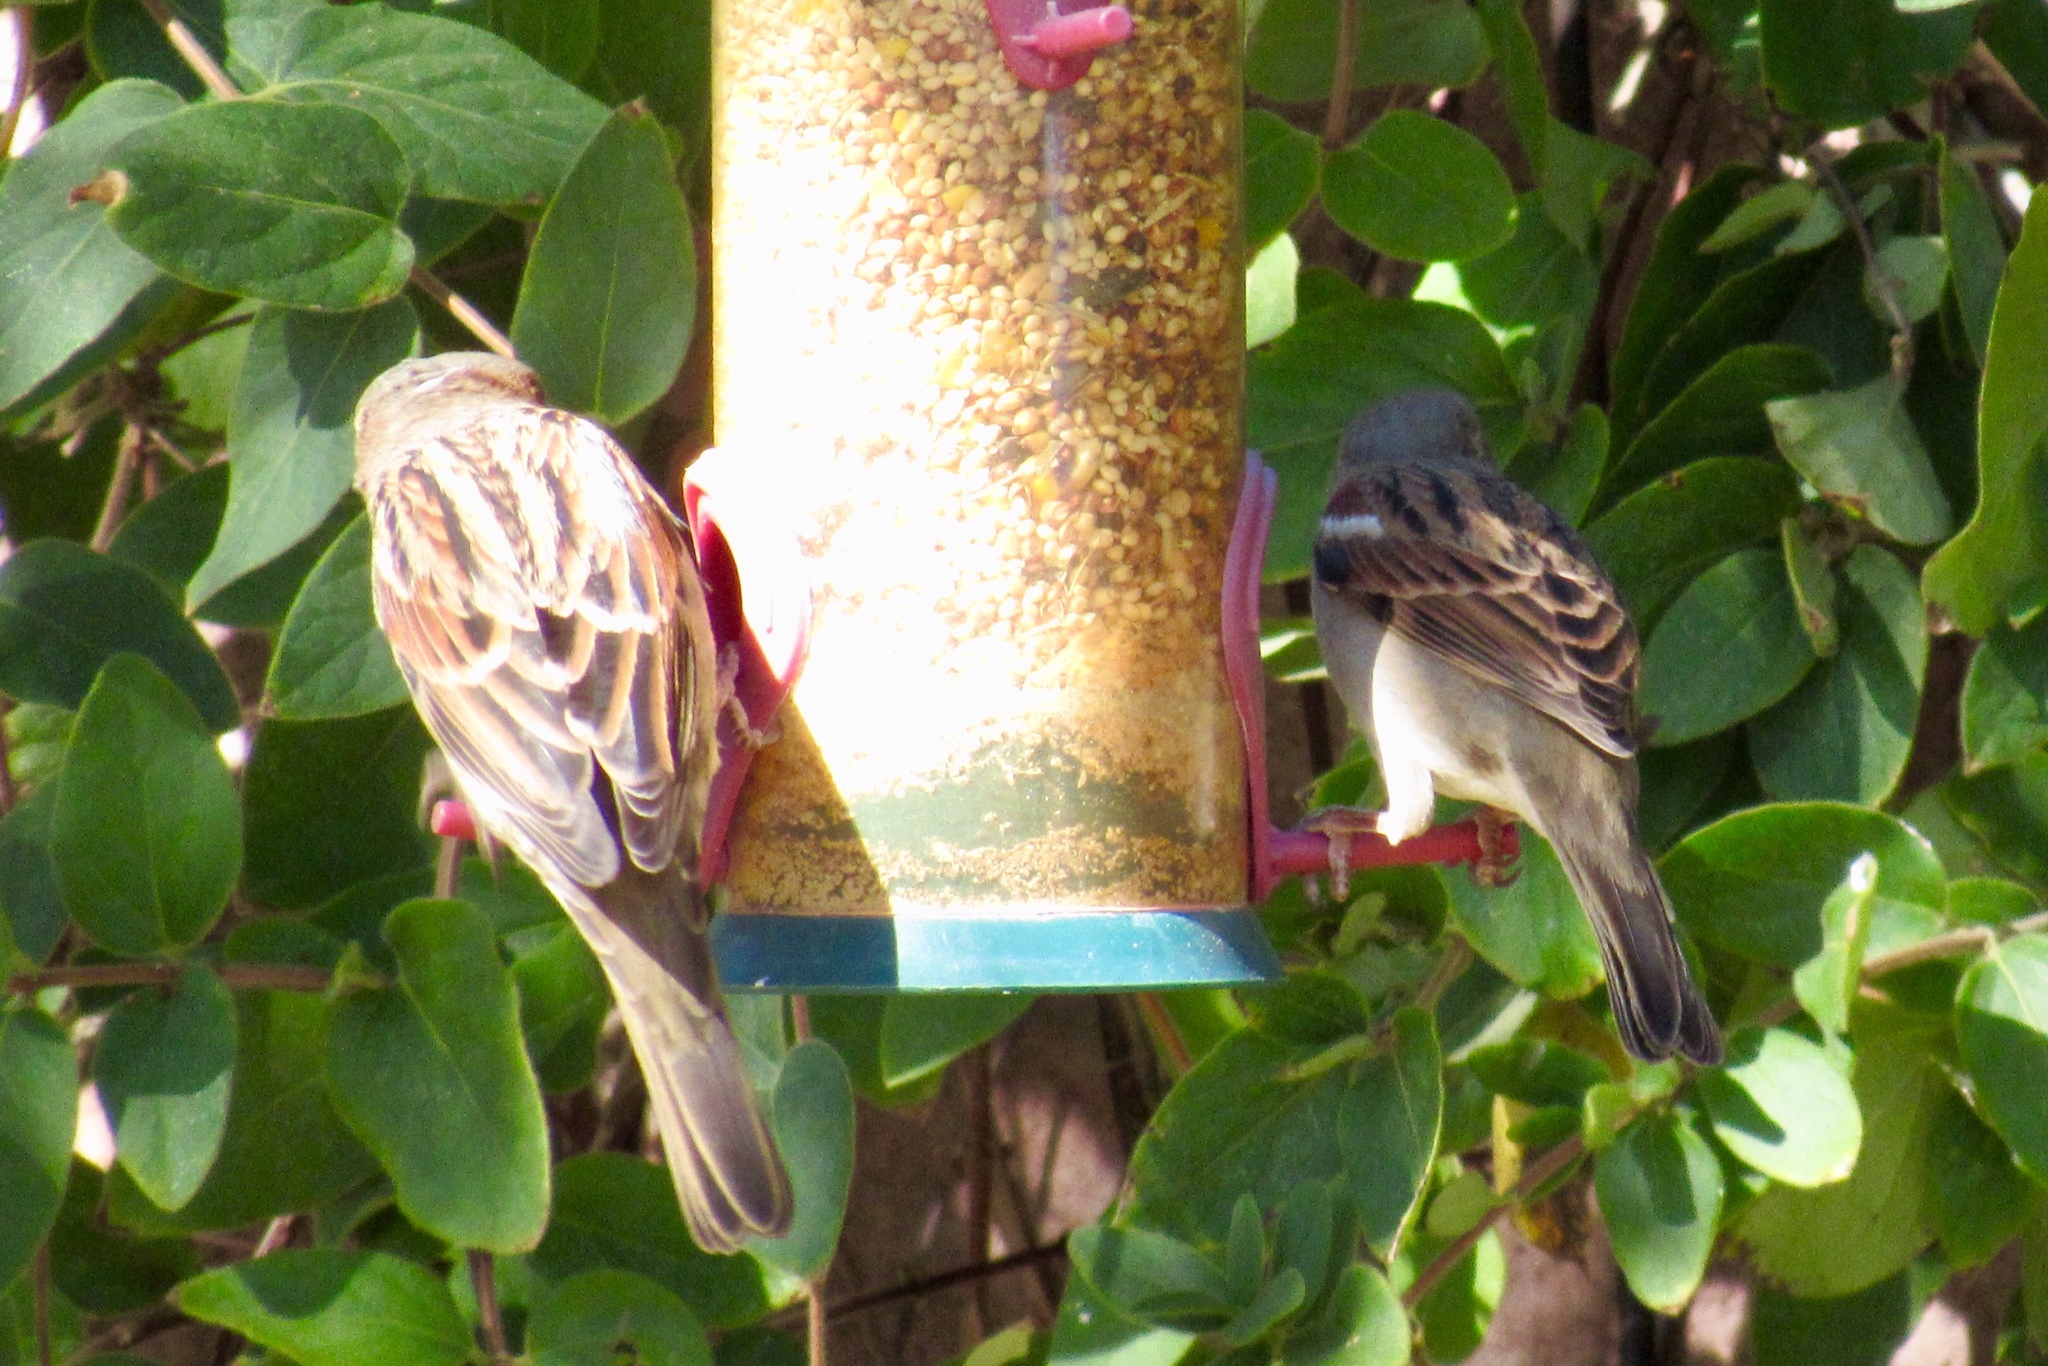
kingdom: Animalia
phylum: Chordata
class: Aves
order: Passeriformes
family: Passeridae
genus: Passer
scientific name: Passer domesticus
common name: House sparrow
